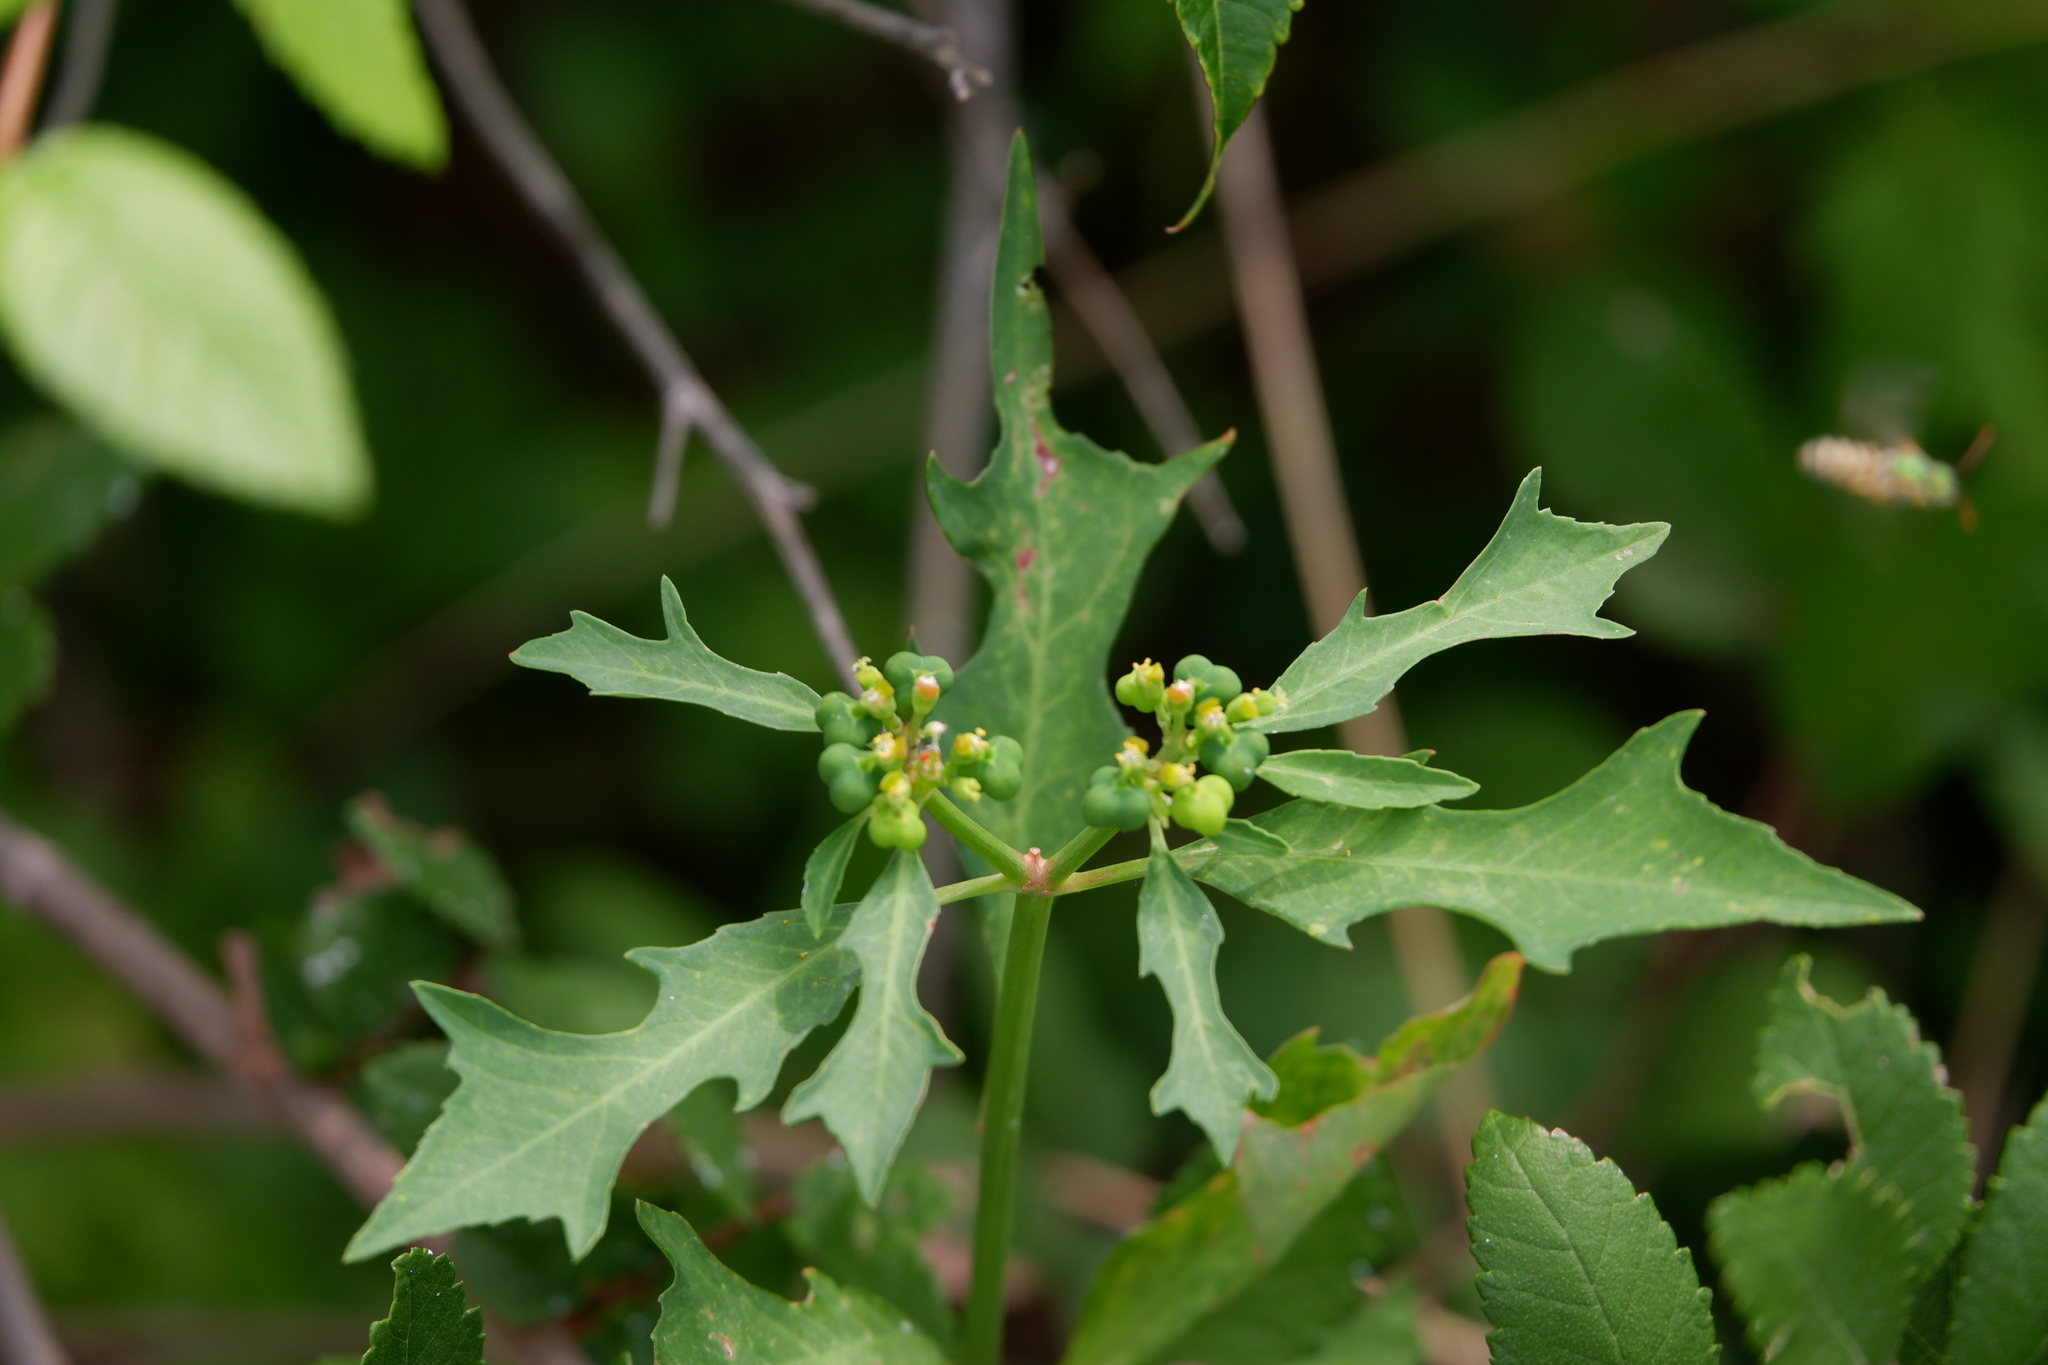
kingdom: Plantae
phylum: Tracheophyta
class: Magnoliopsida
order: Malpighiales
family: Euphorbiaceae
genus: Euphorbia
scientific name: Euphorbia heterophylla
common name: Mexican fireplant
